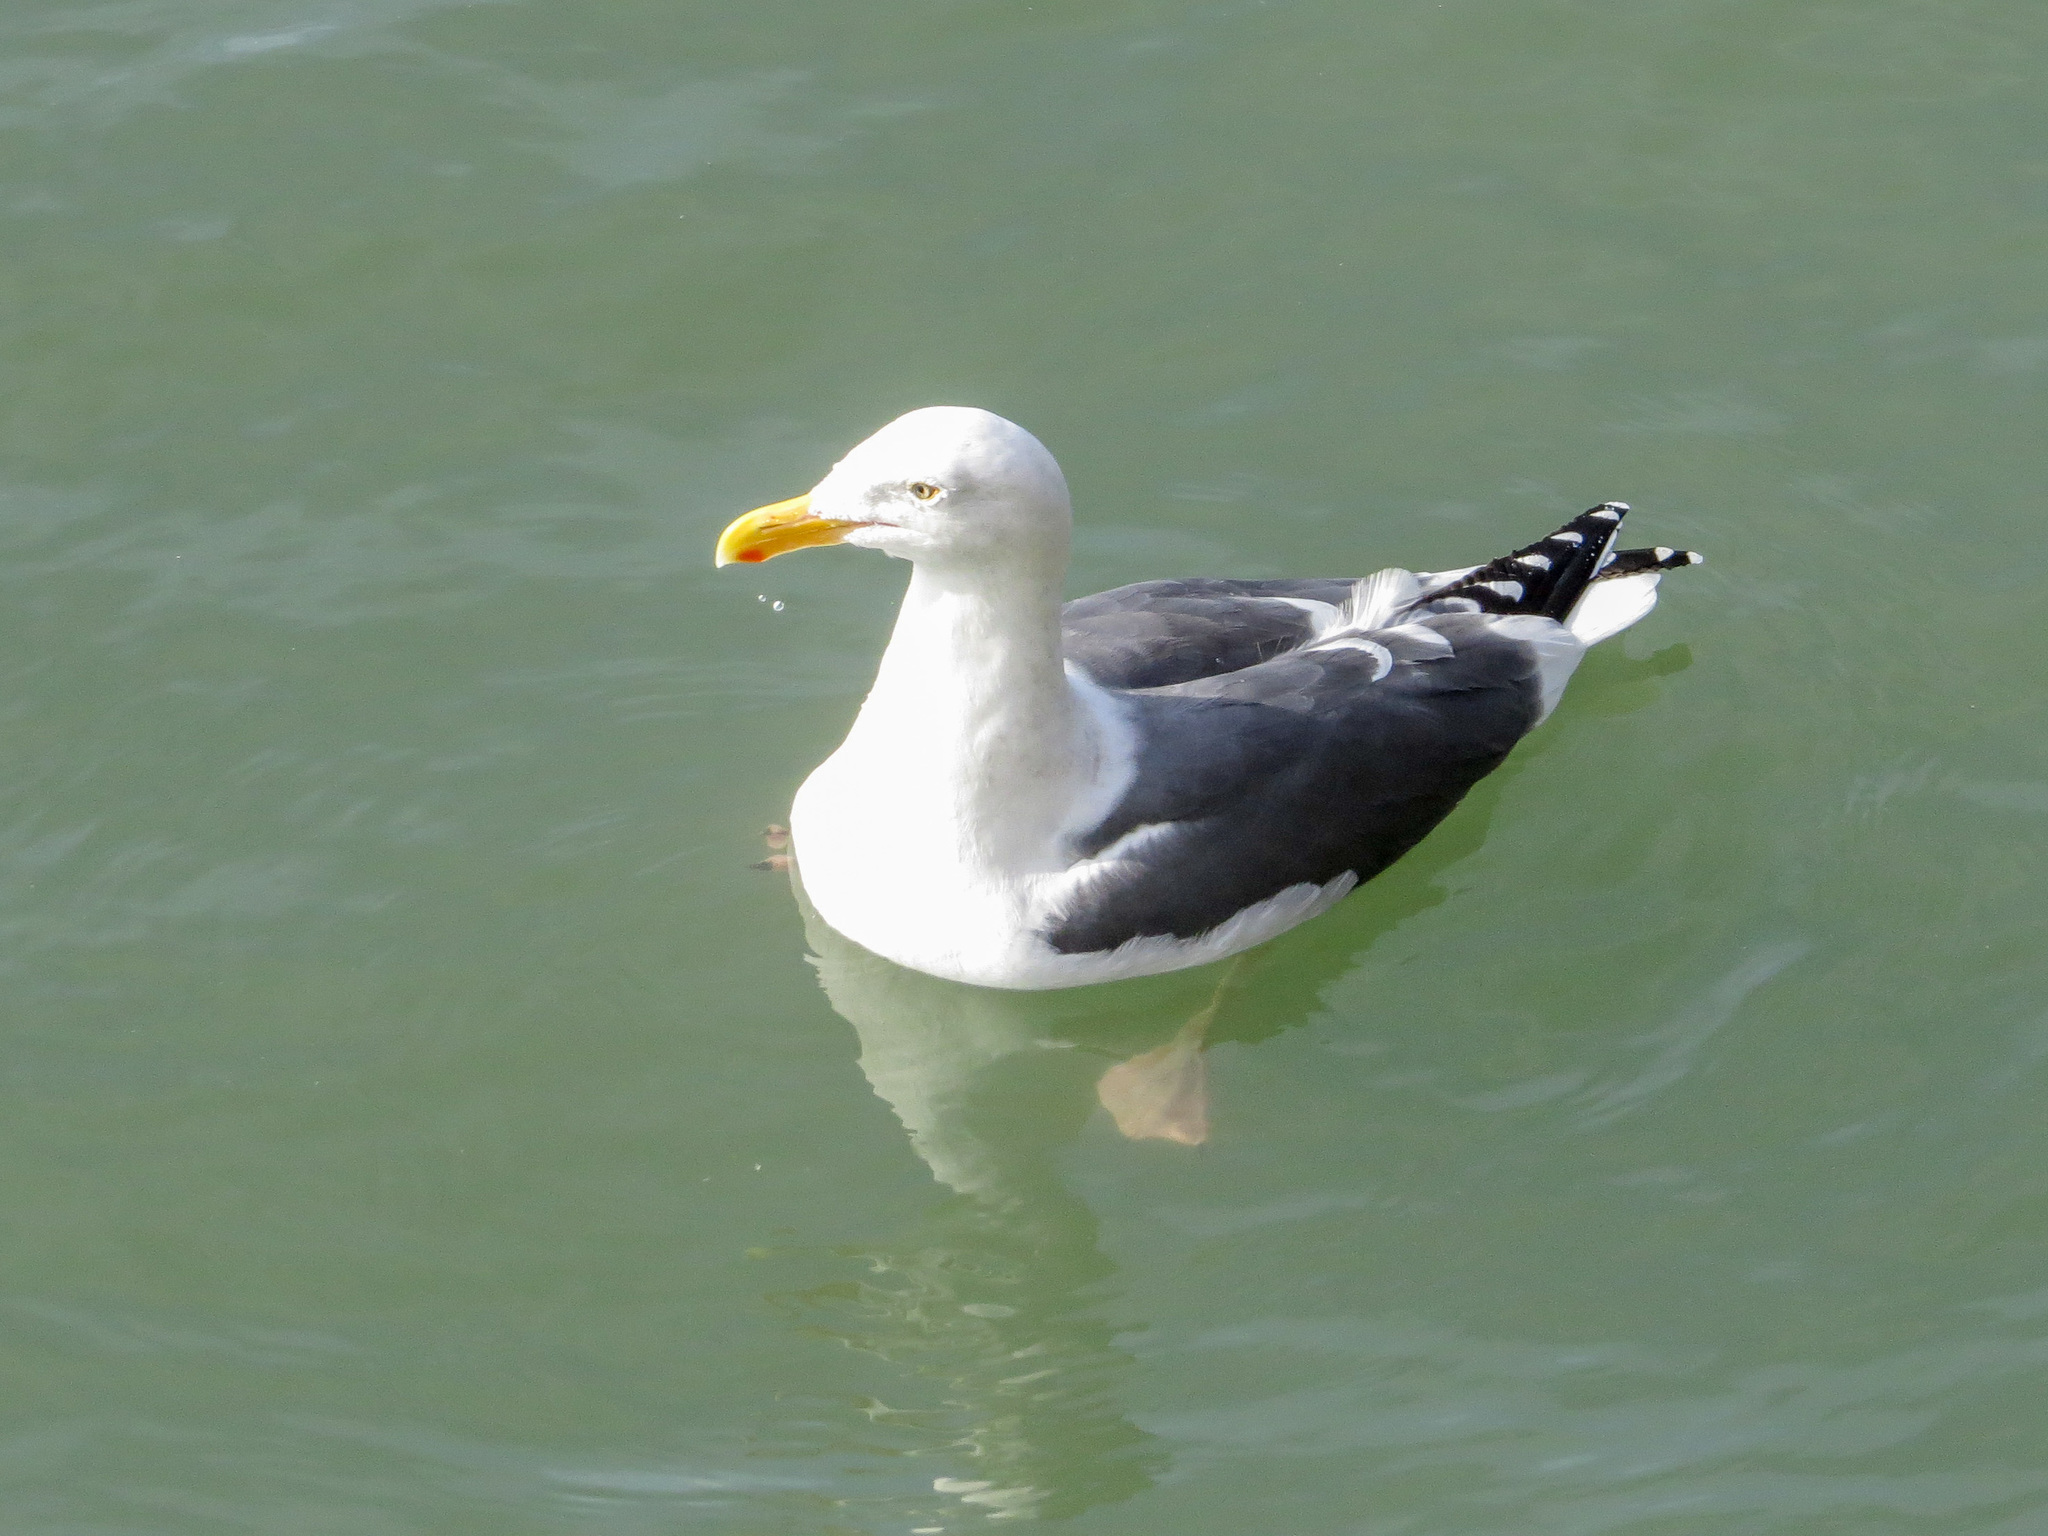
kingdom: Animalia
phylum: Chordata
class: Aves
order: Charadriiformes
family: Laridae
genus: Larus
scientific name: Larus occidentalis
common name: Western gull
